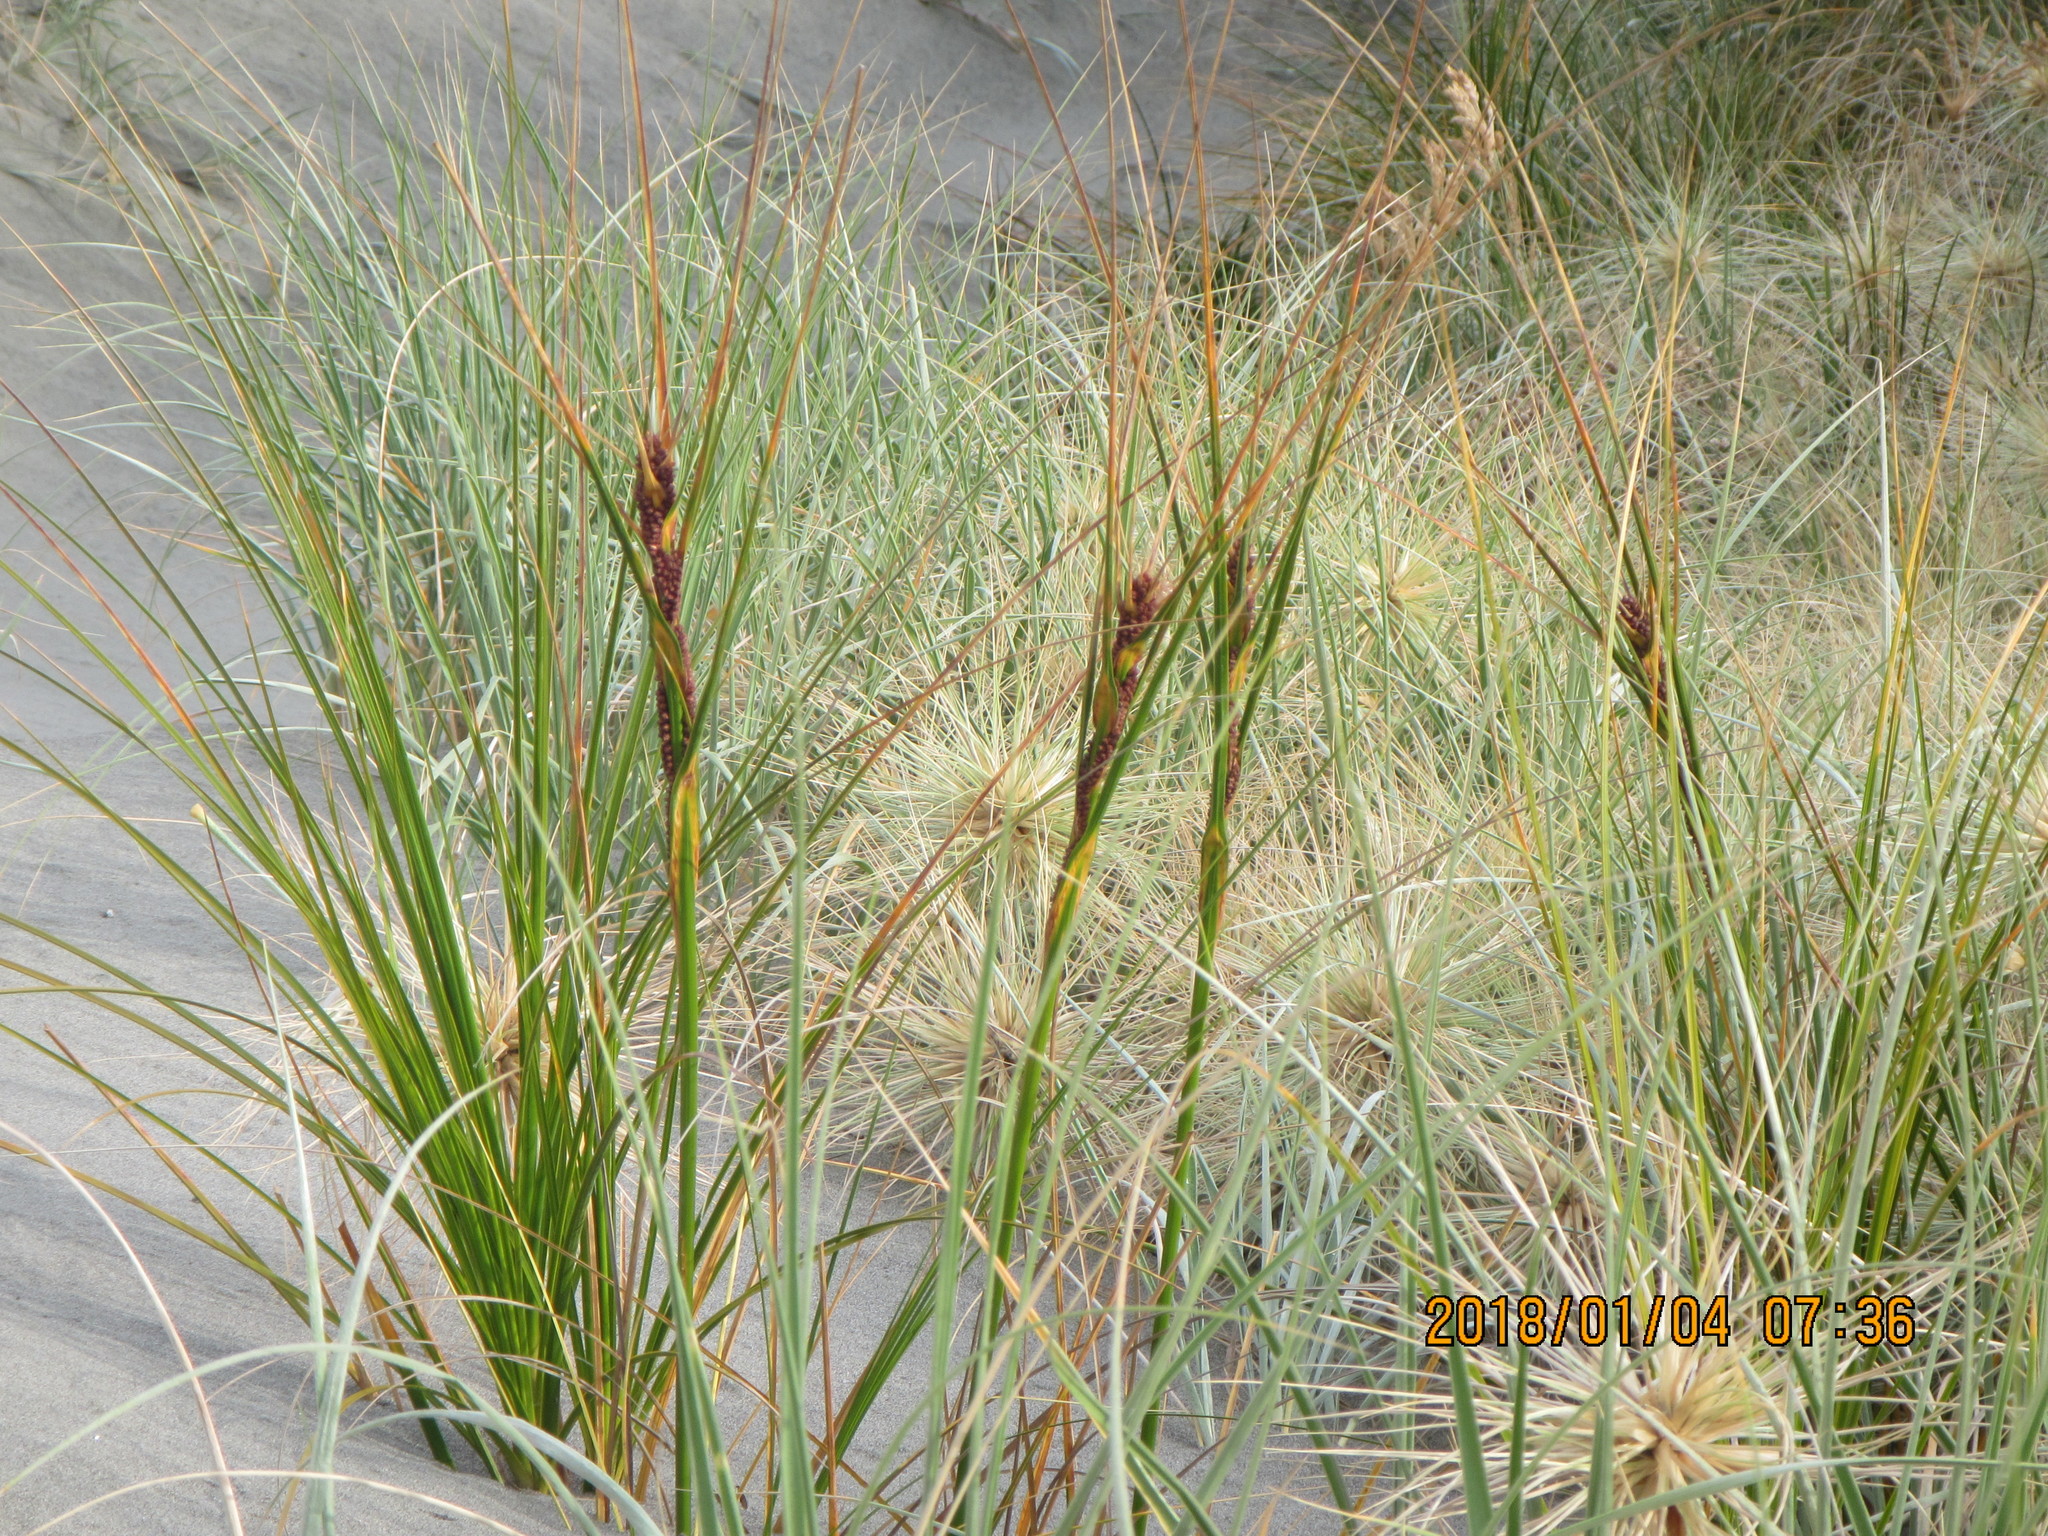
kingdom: Plantae
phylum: Tracheophyta
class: Liliopsida
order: Poales
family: Cyperaceae
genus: Ficinia
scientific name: Ficinia spiralis
